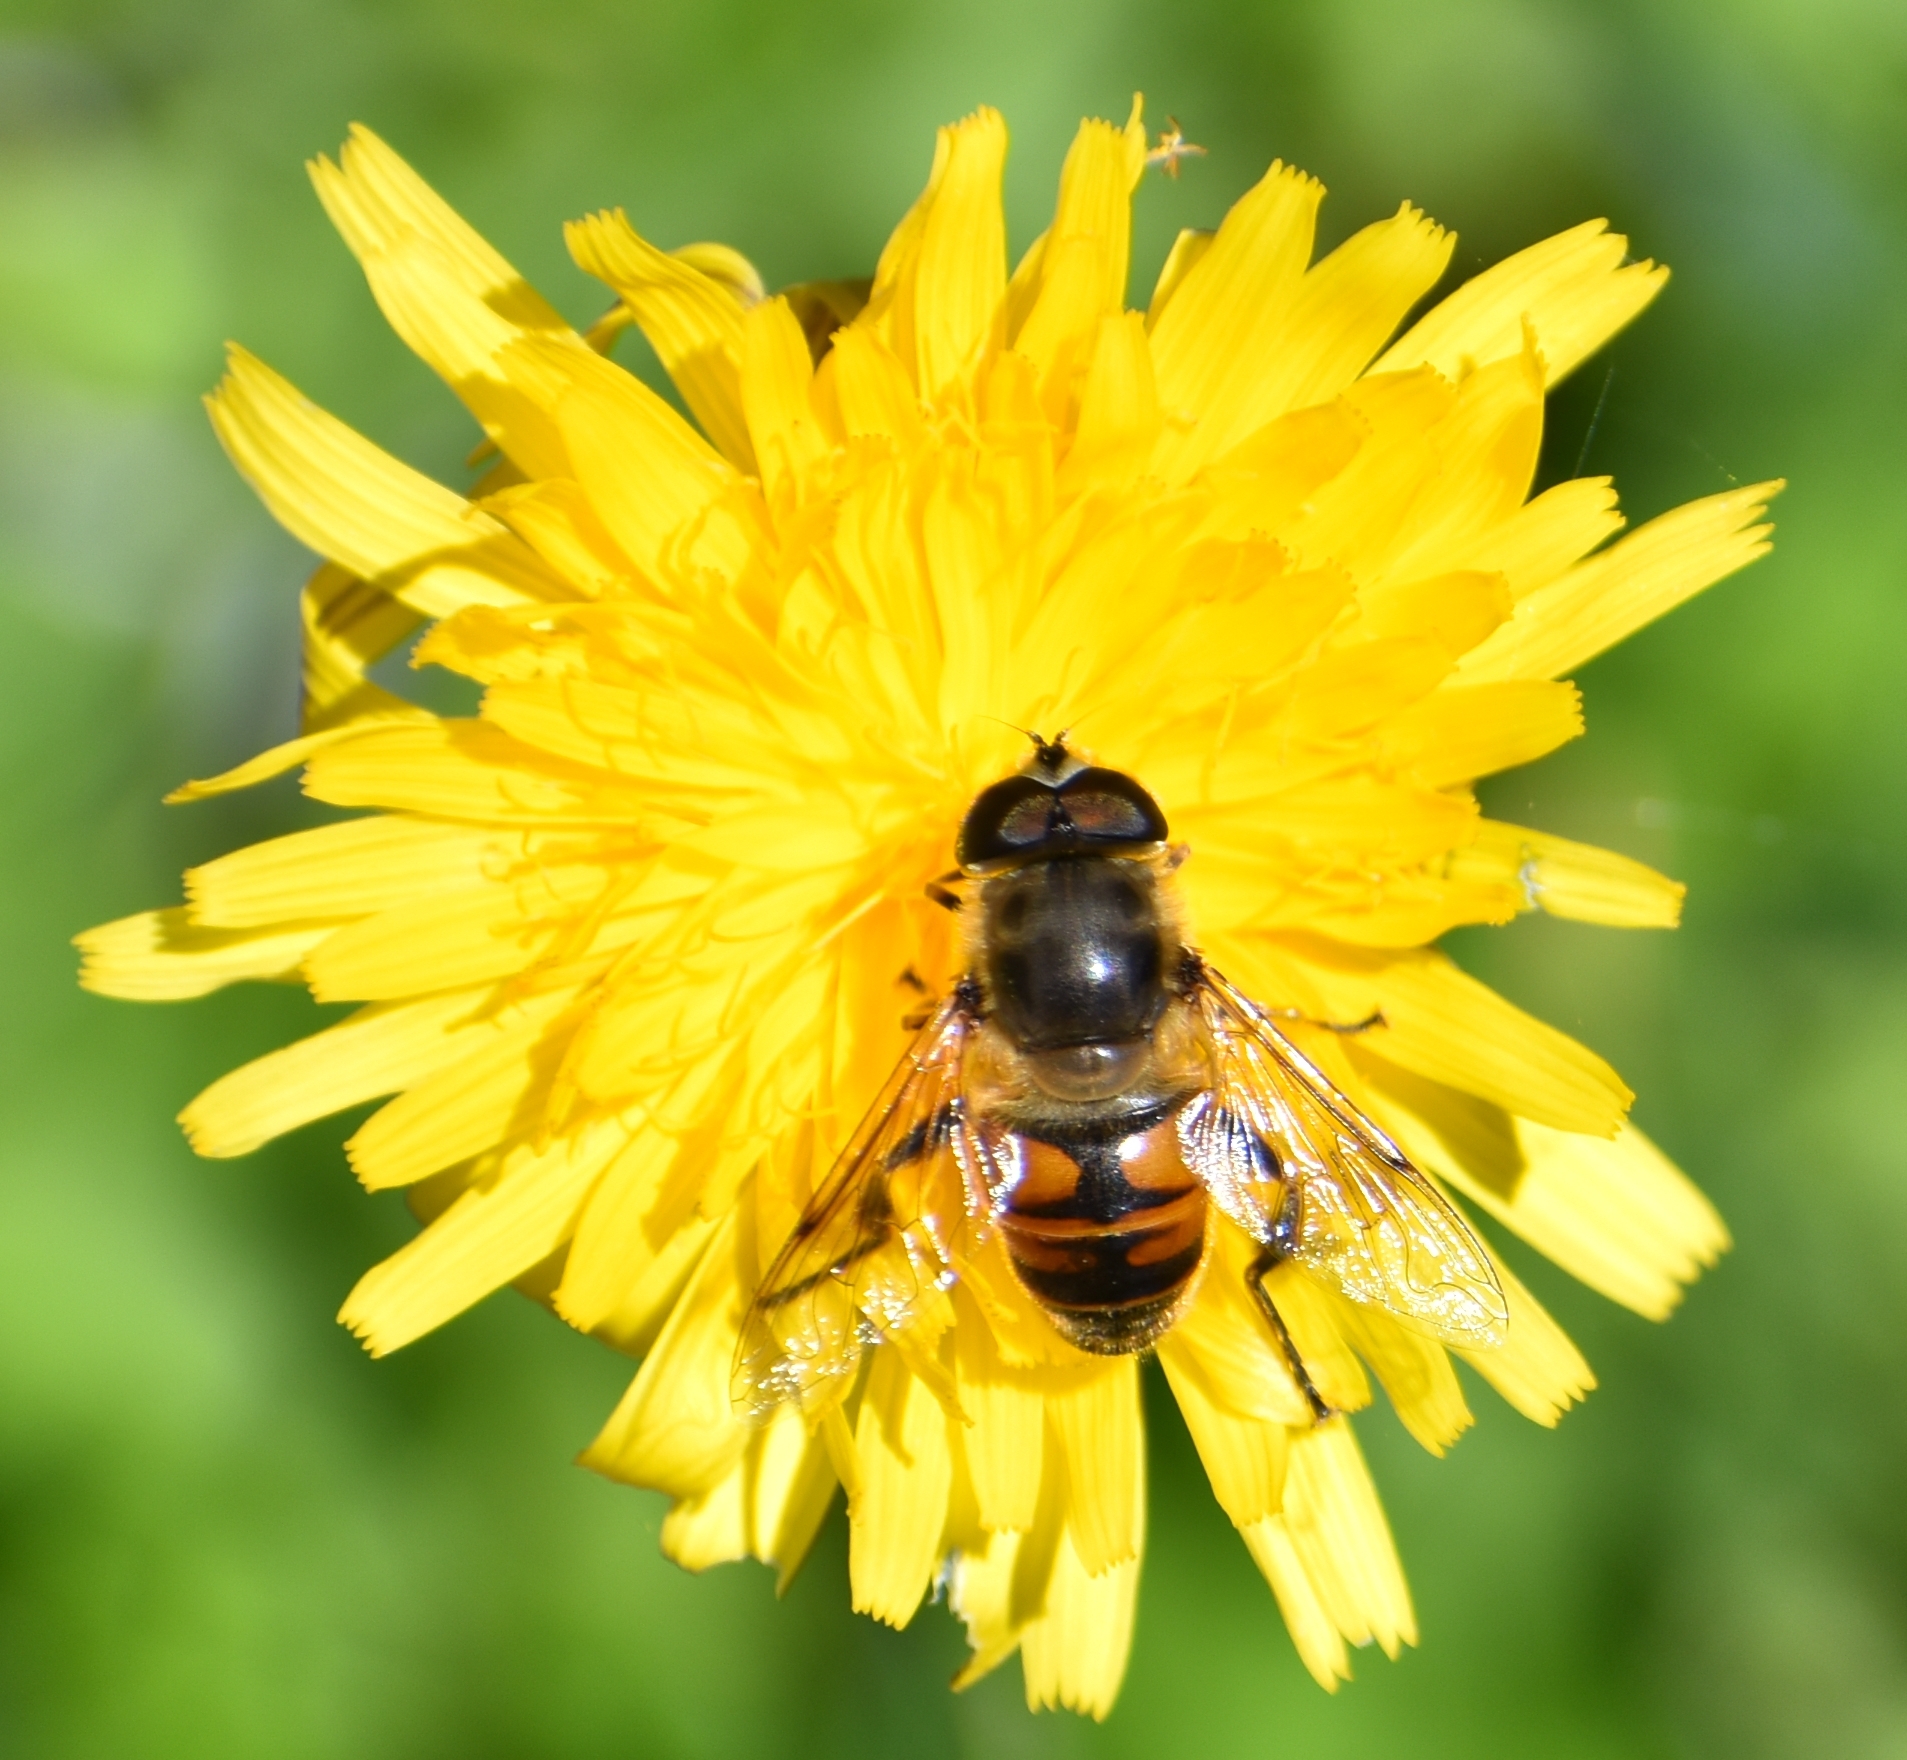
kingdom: Animalia
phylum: Arthropoda
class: Insecta
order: Diptera
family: Syrphidae
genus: Eristalis
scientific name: Eristalis tenax
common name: Drone fly
